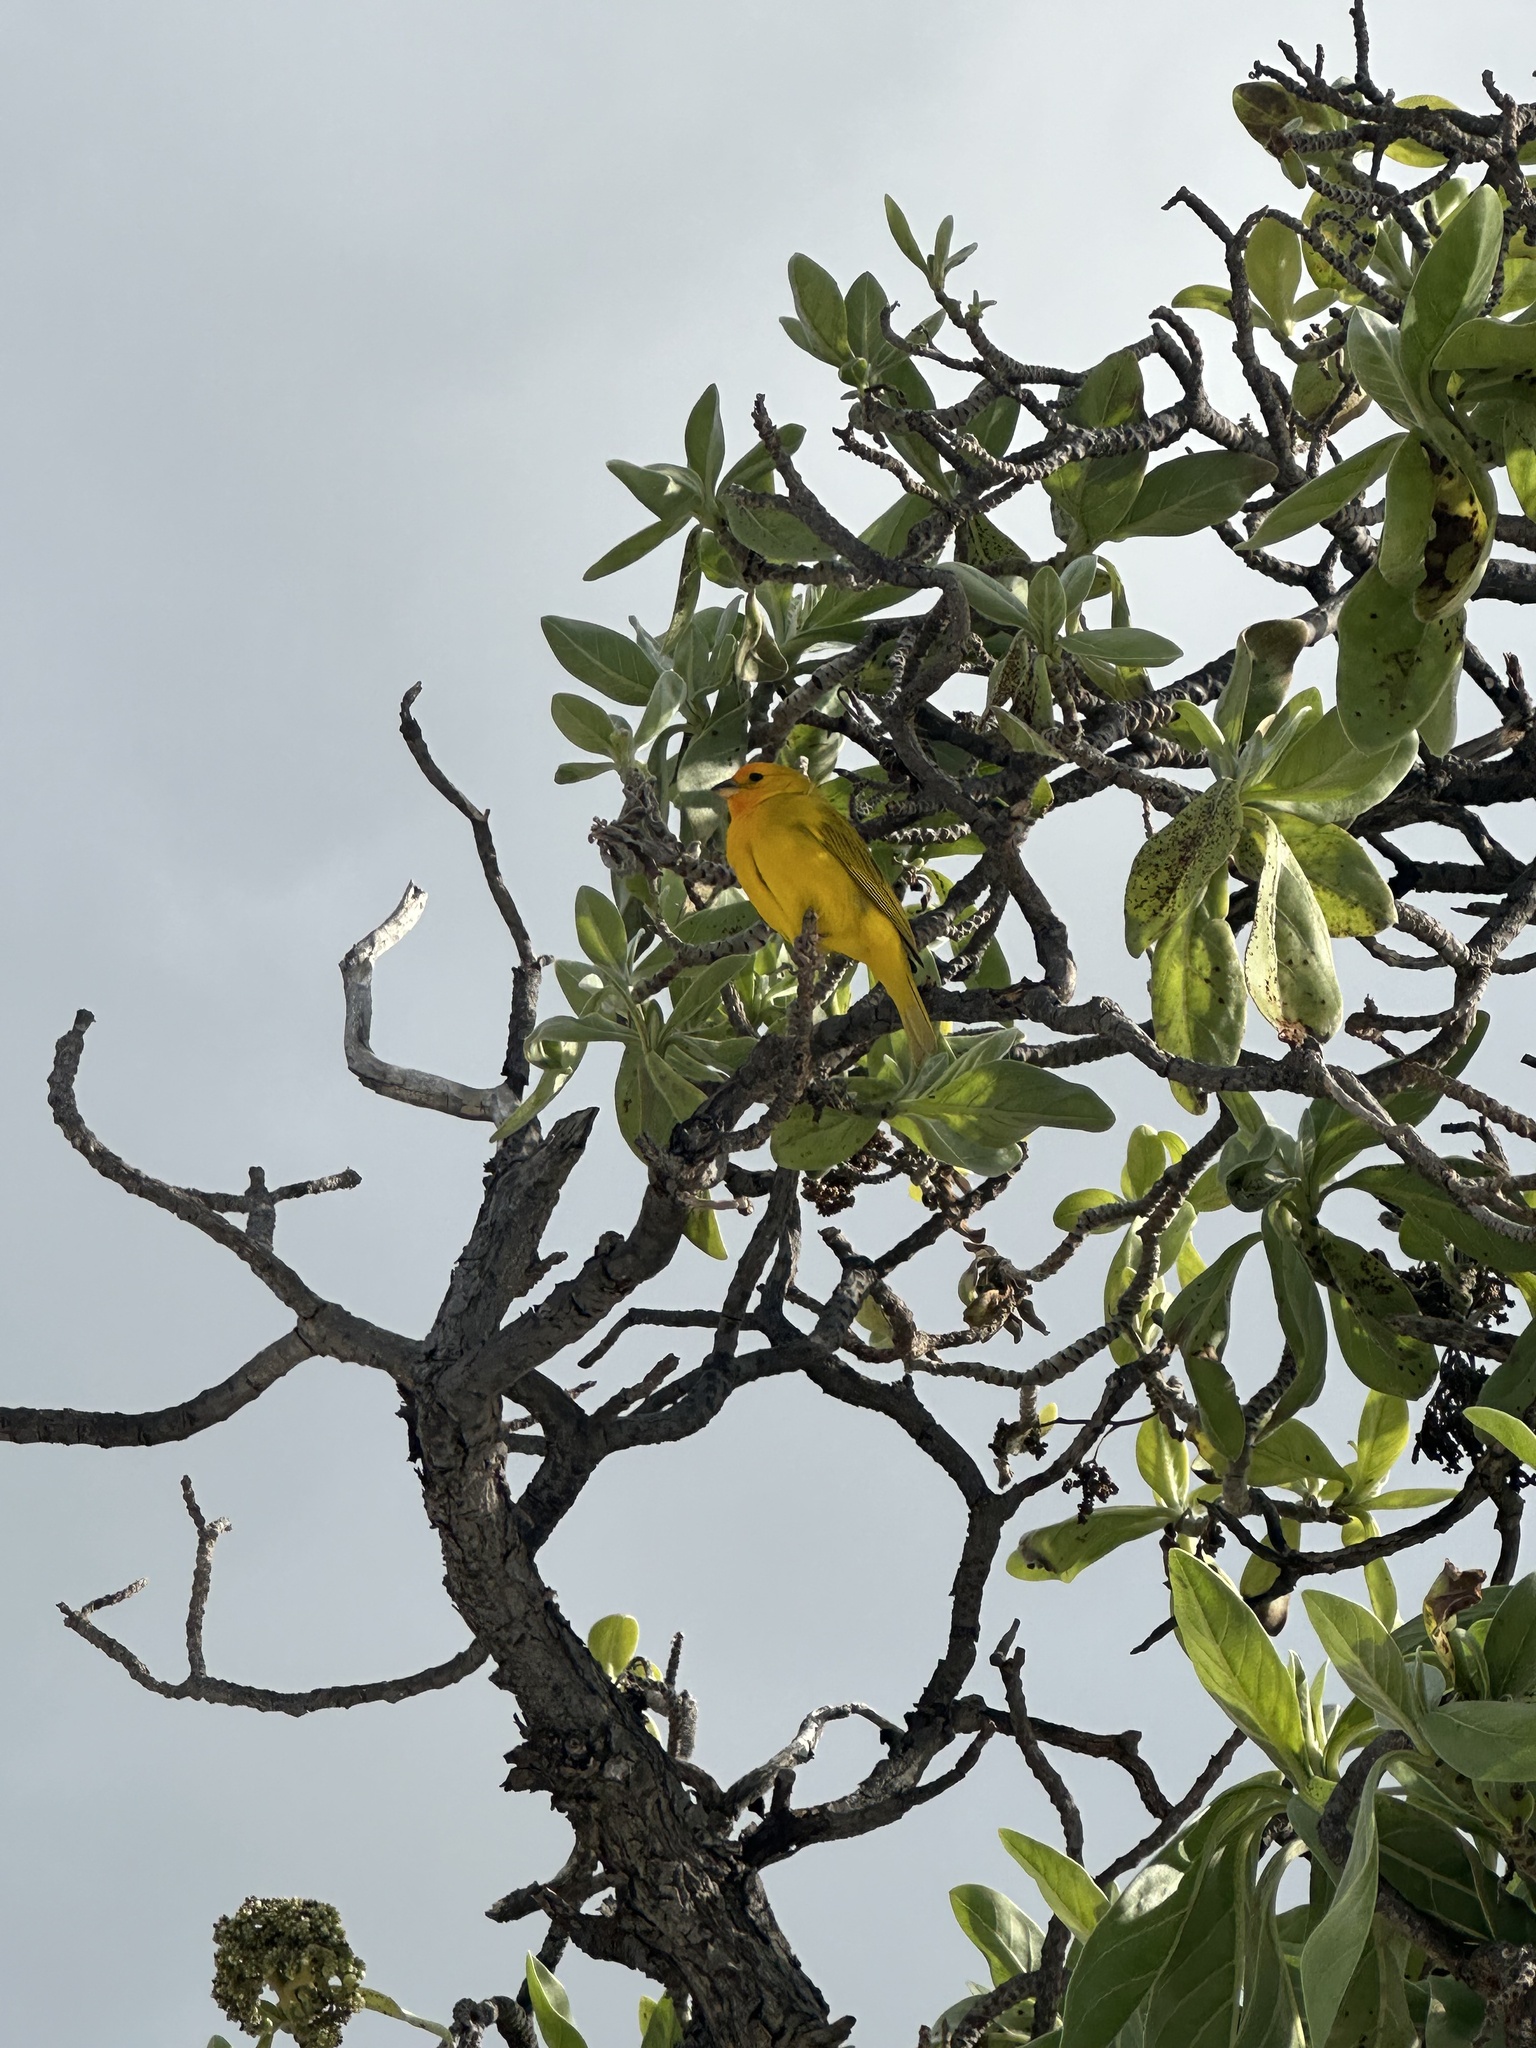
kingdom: Animalia
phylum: Chordata
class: Aves
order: Passeriformes
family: Thraupidae
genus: Sicalis
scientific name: Sicalis flaveola
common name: Saffron finch
